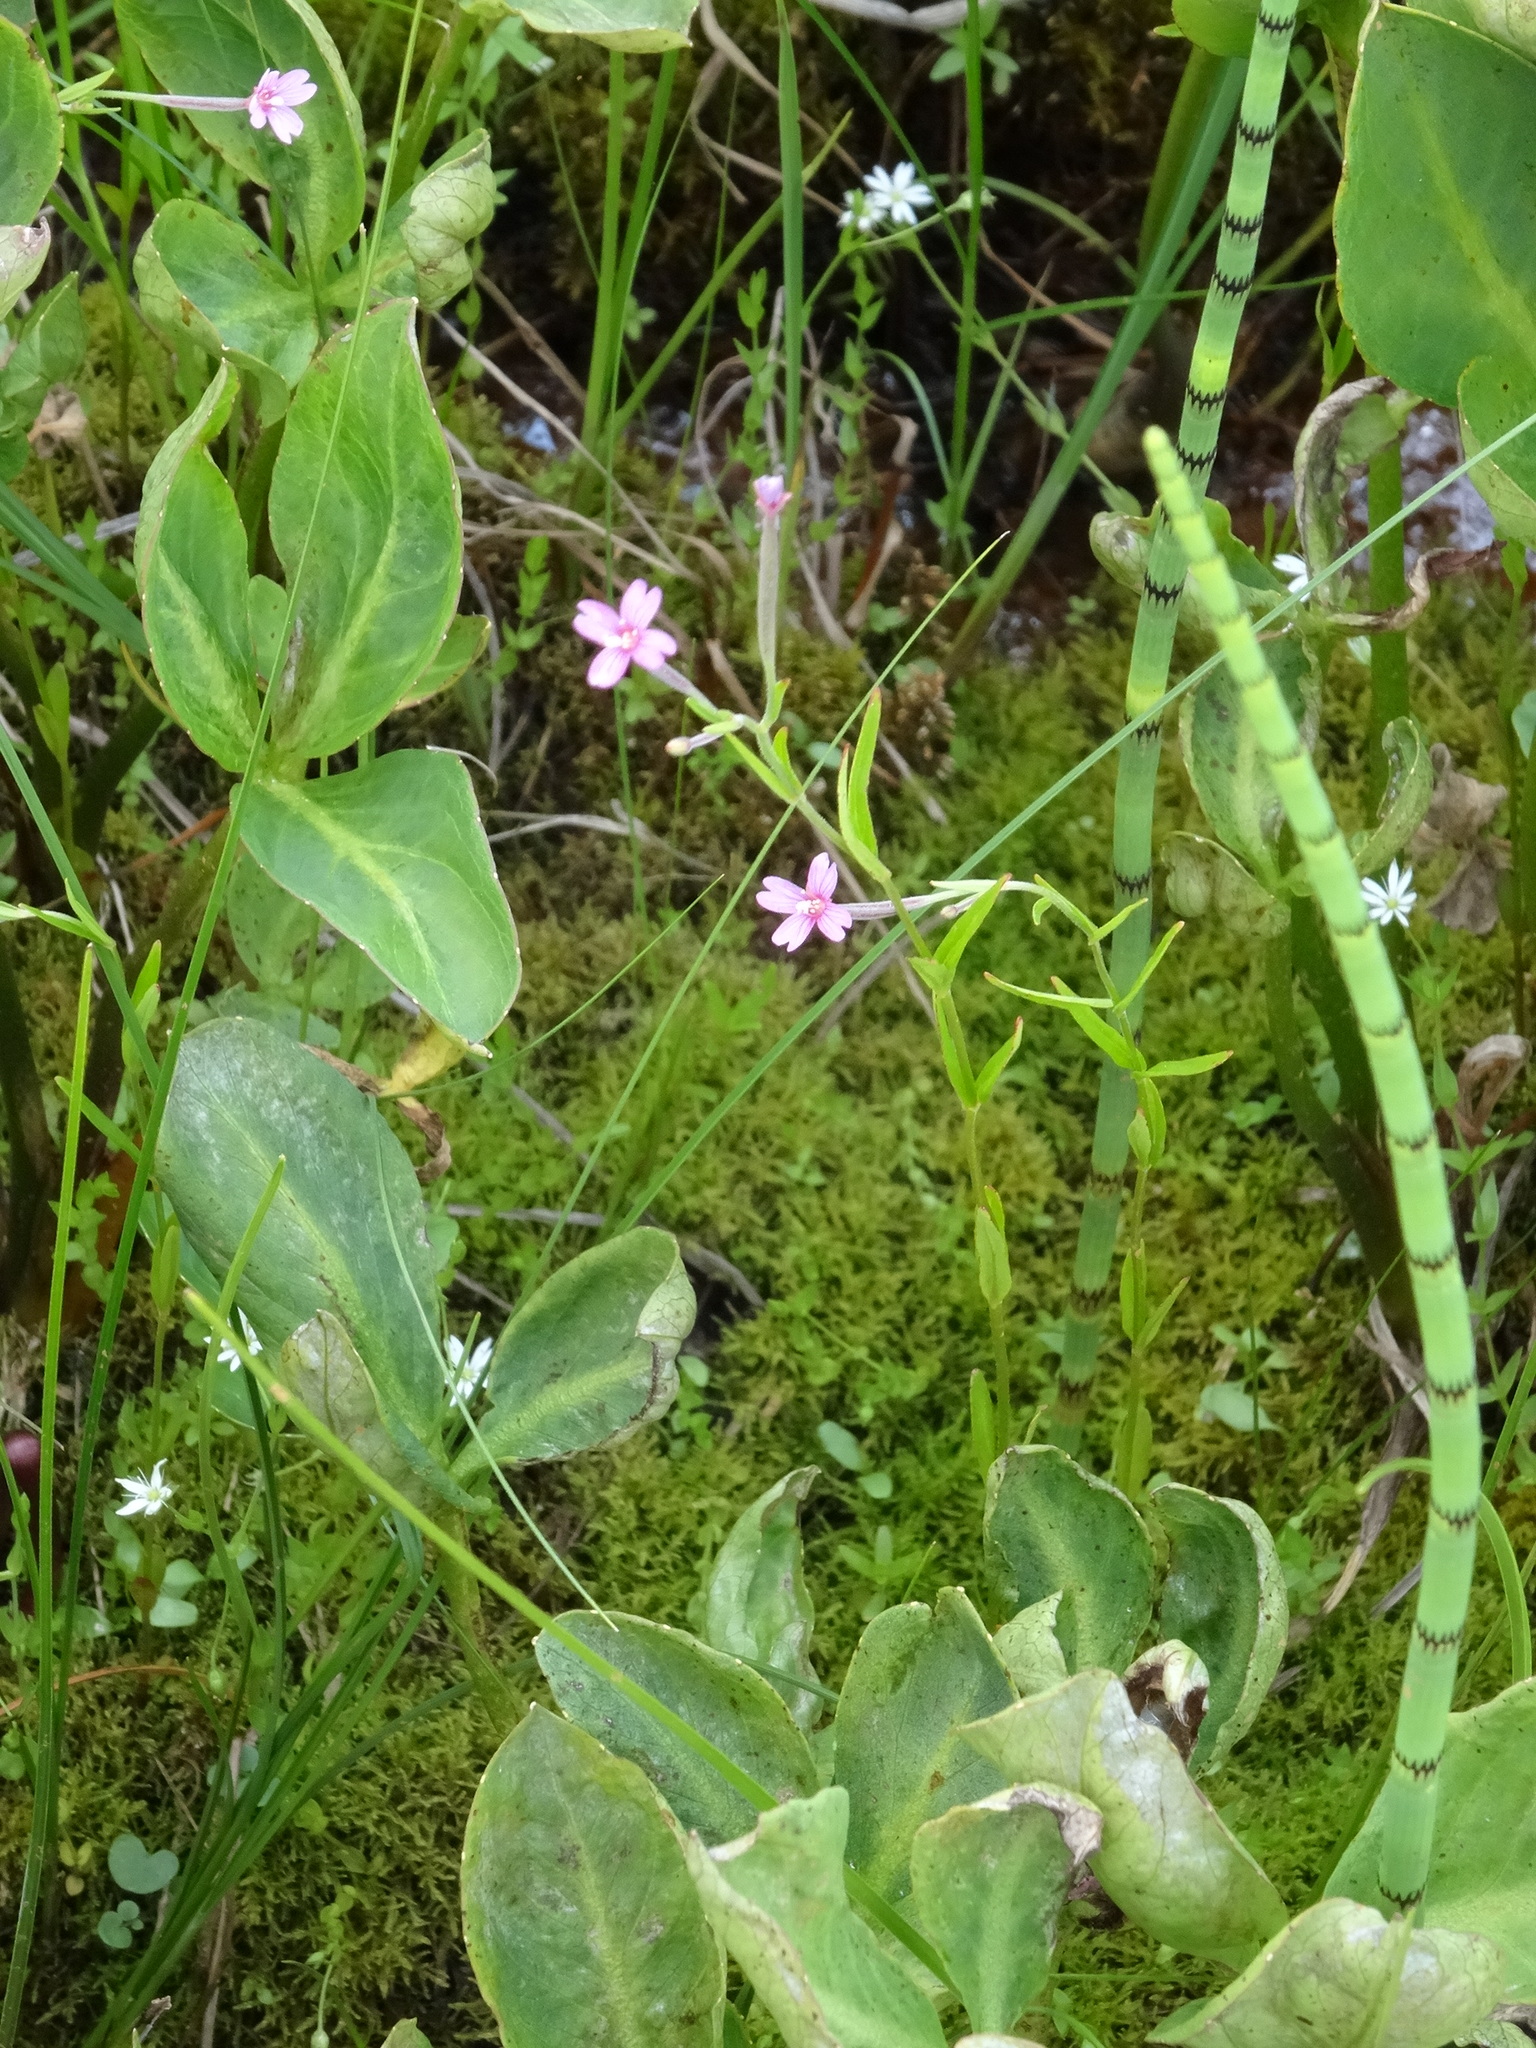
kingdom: Plantae
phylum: Tracheophyta
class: Magnoliopsida
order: Myrtales
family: Onagraceae
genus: Epilobium
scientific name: Epilobium palustre
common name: Marsh willowherb
